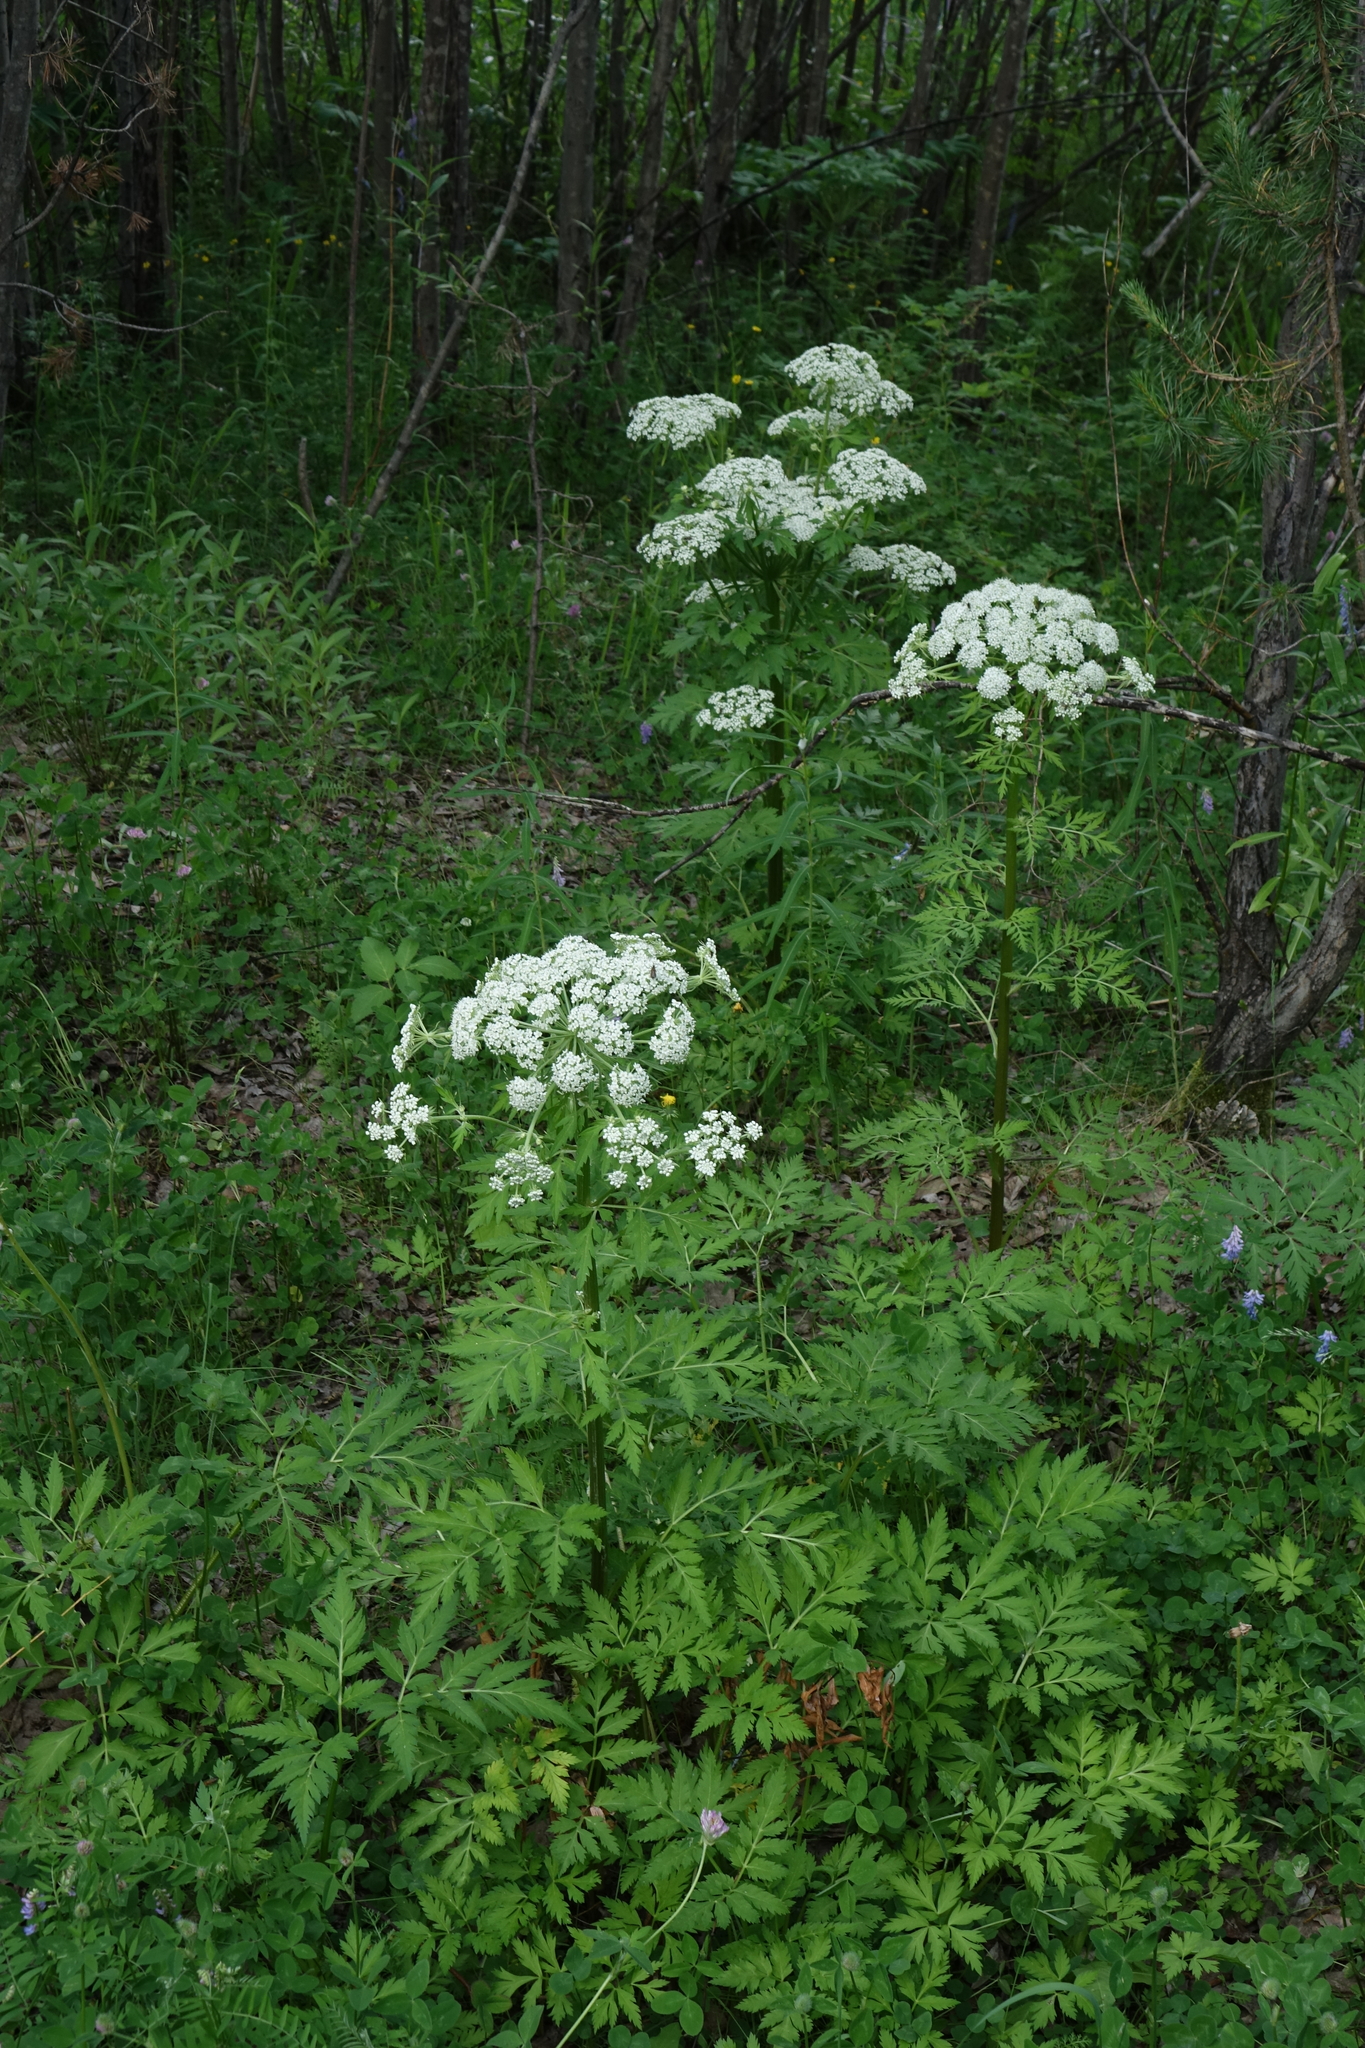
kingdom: Plantae
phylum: Tracheophyta
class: Magnoliopsida
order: Apiales
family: Apiaceae
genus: Pleurospermum
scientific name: Pleurospermum uralense
